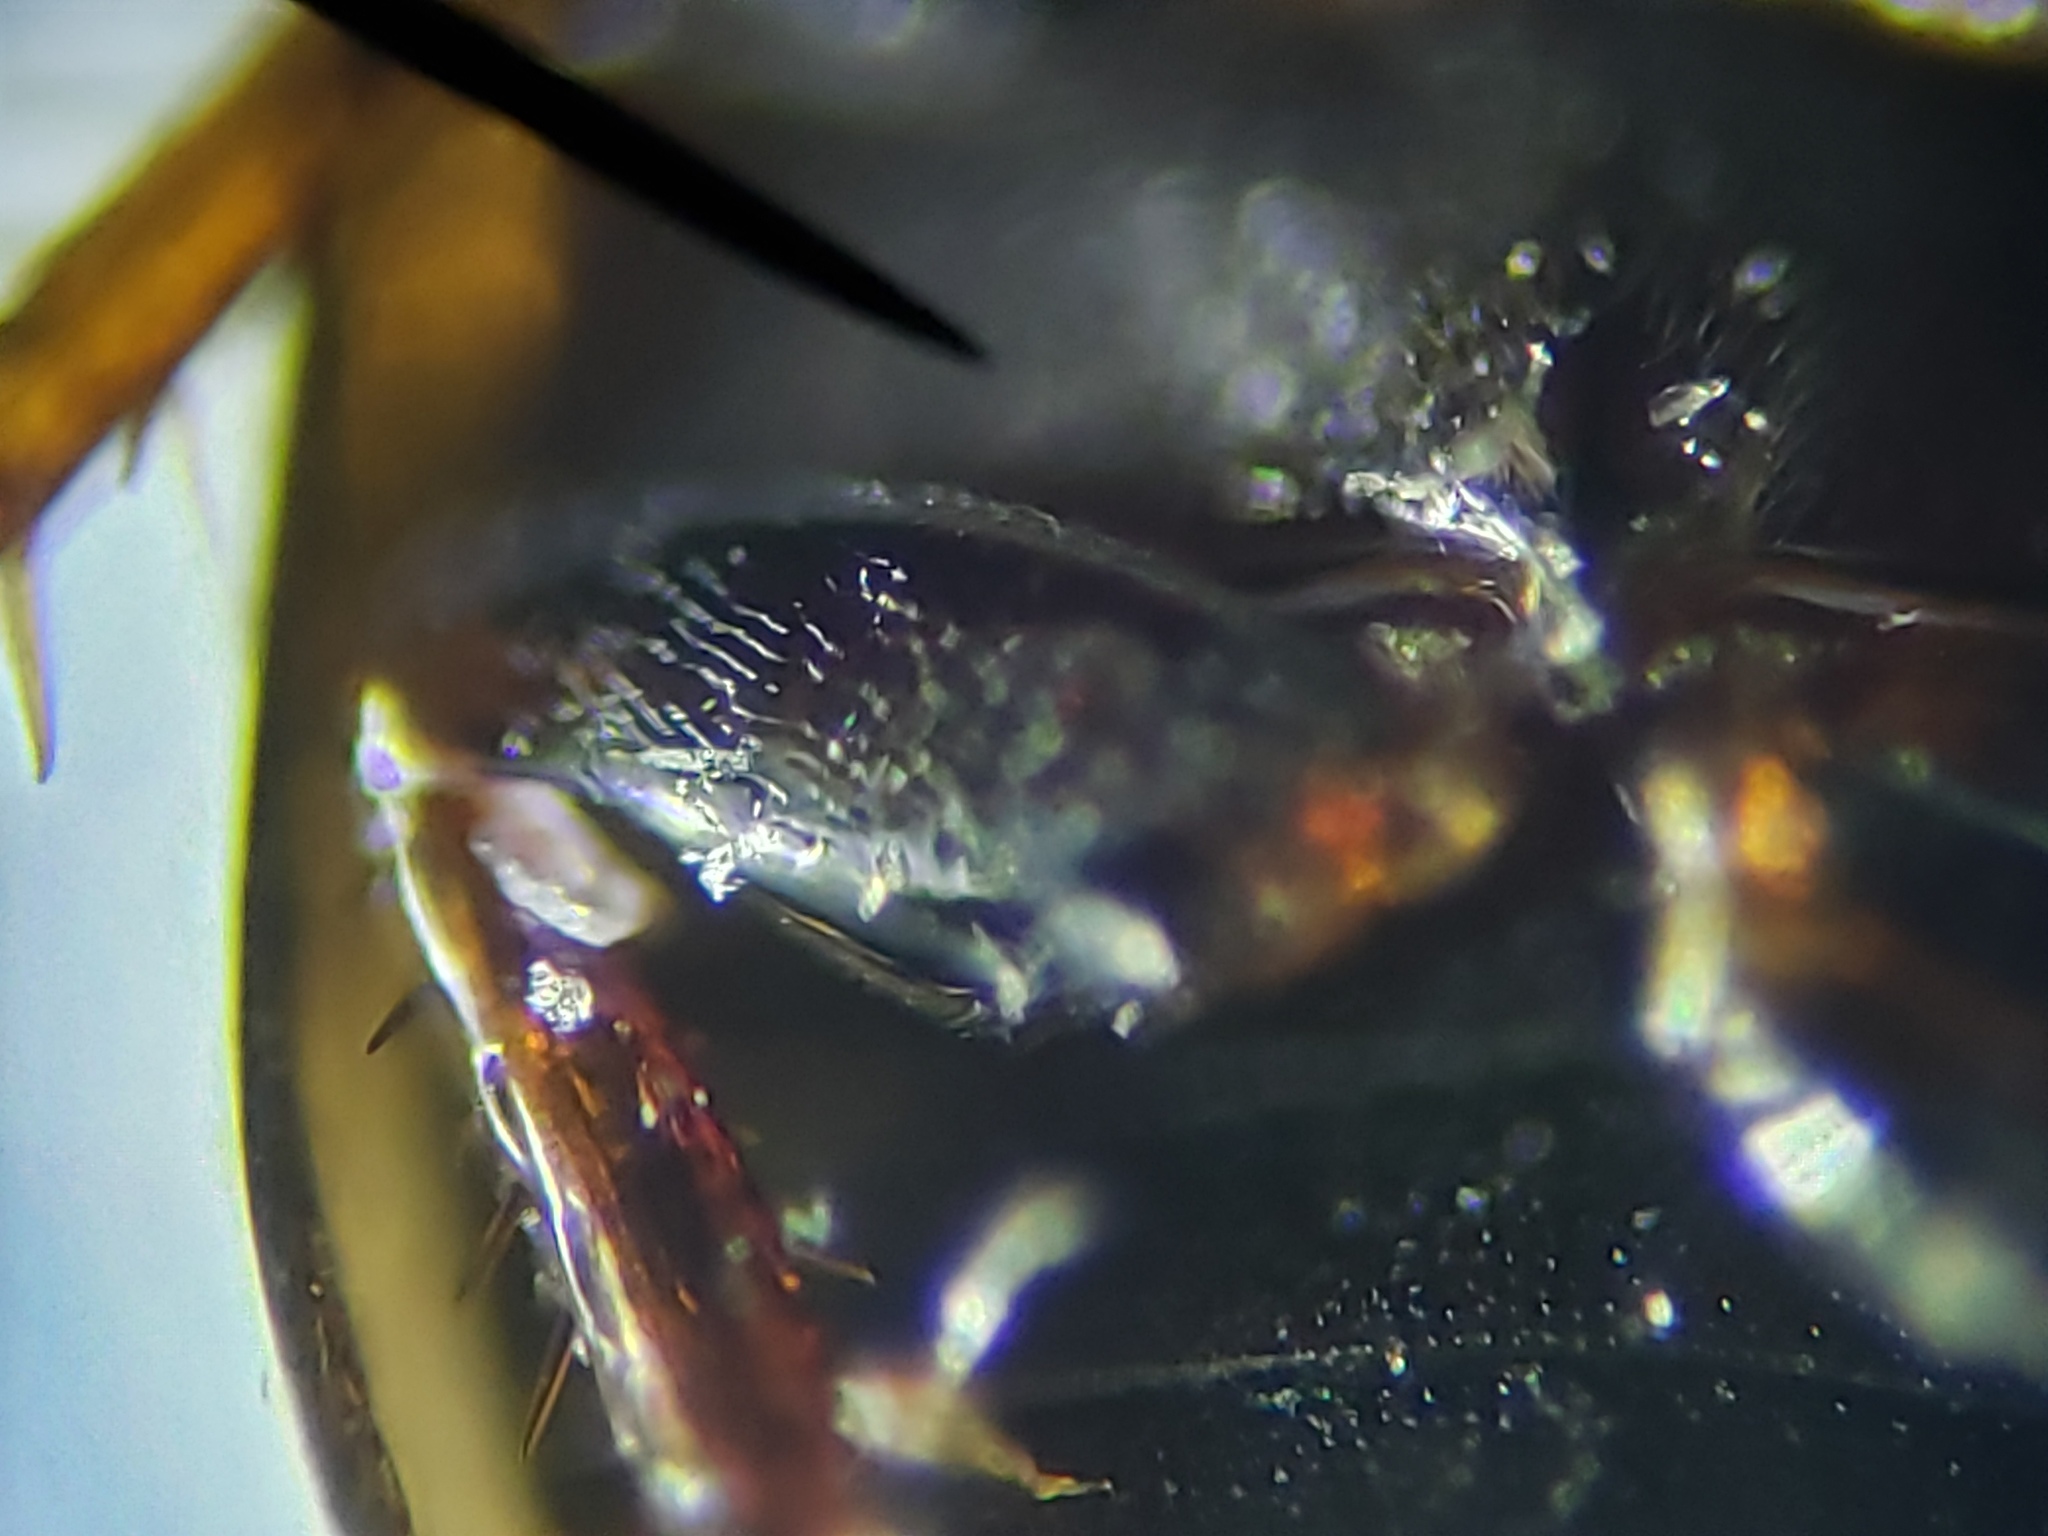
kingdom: Animalia
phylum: Arthropoda
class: Insecta
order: Coleoptera
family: Hydrophilidae
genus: Paracymus
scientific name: Paracymus nanus
